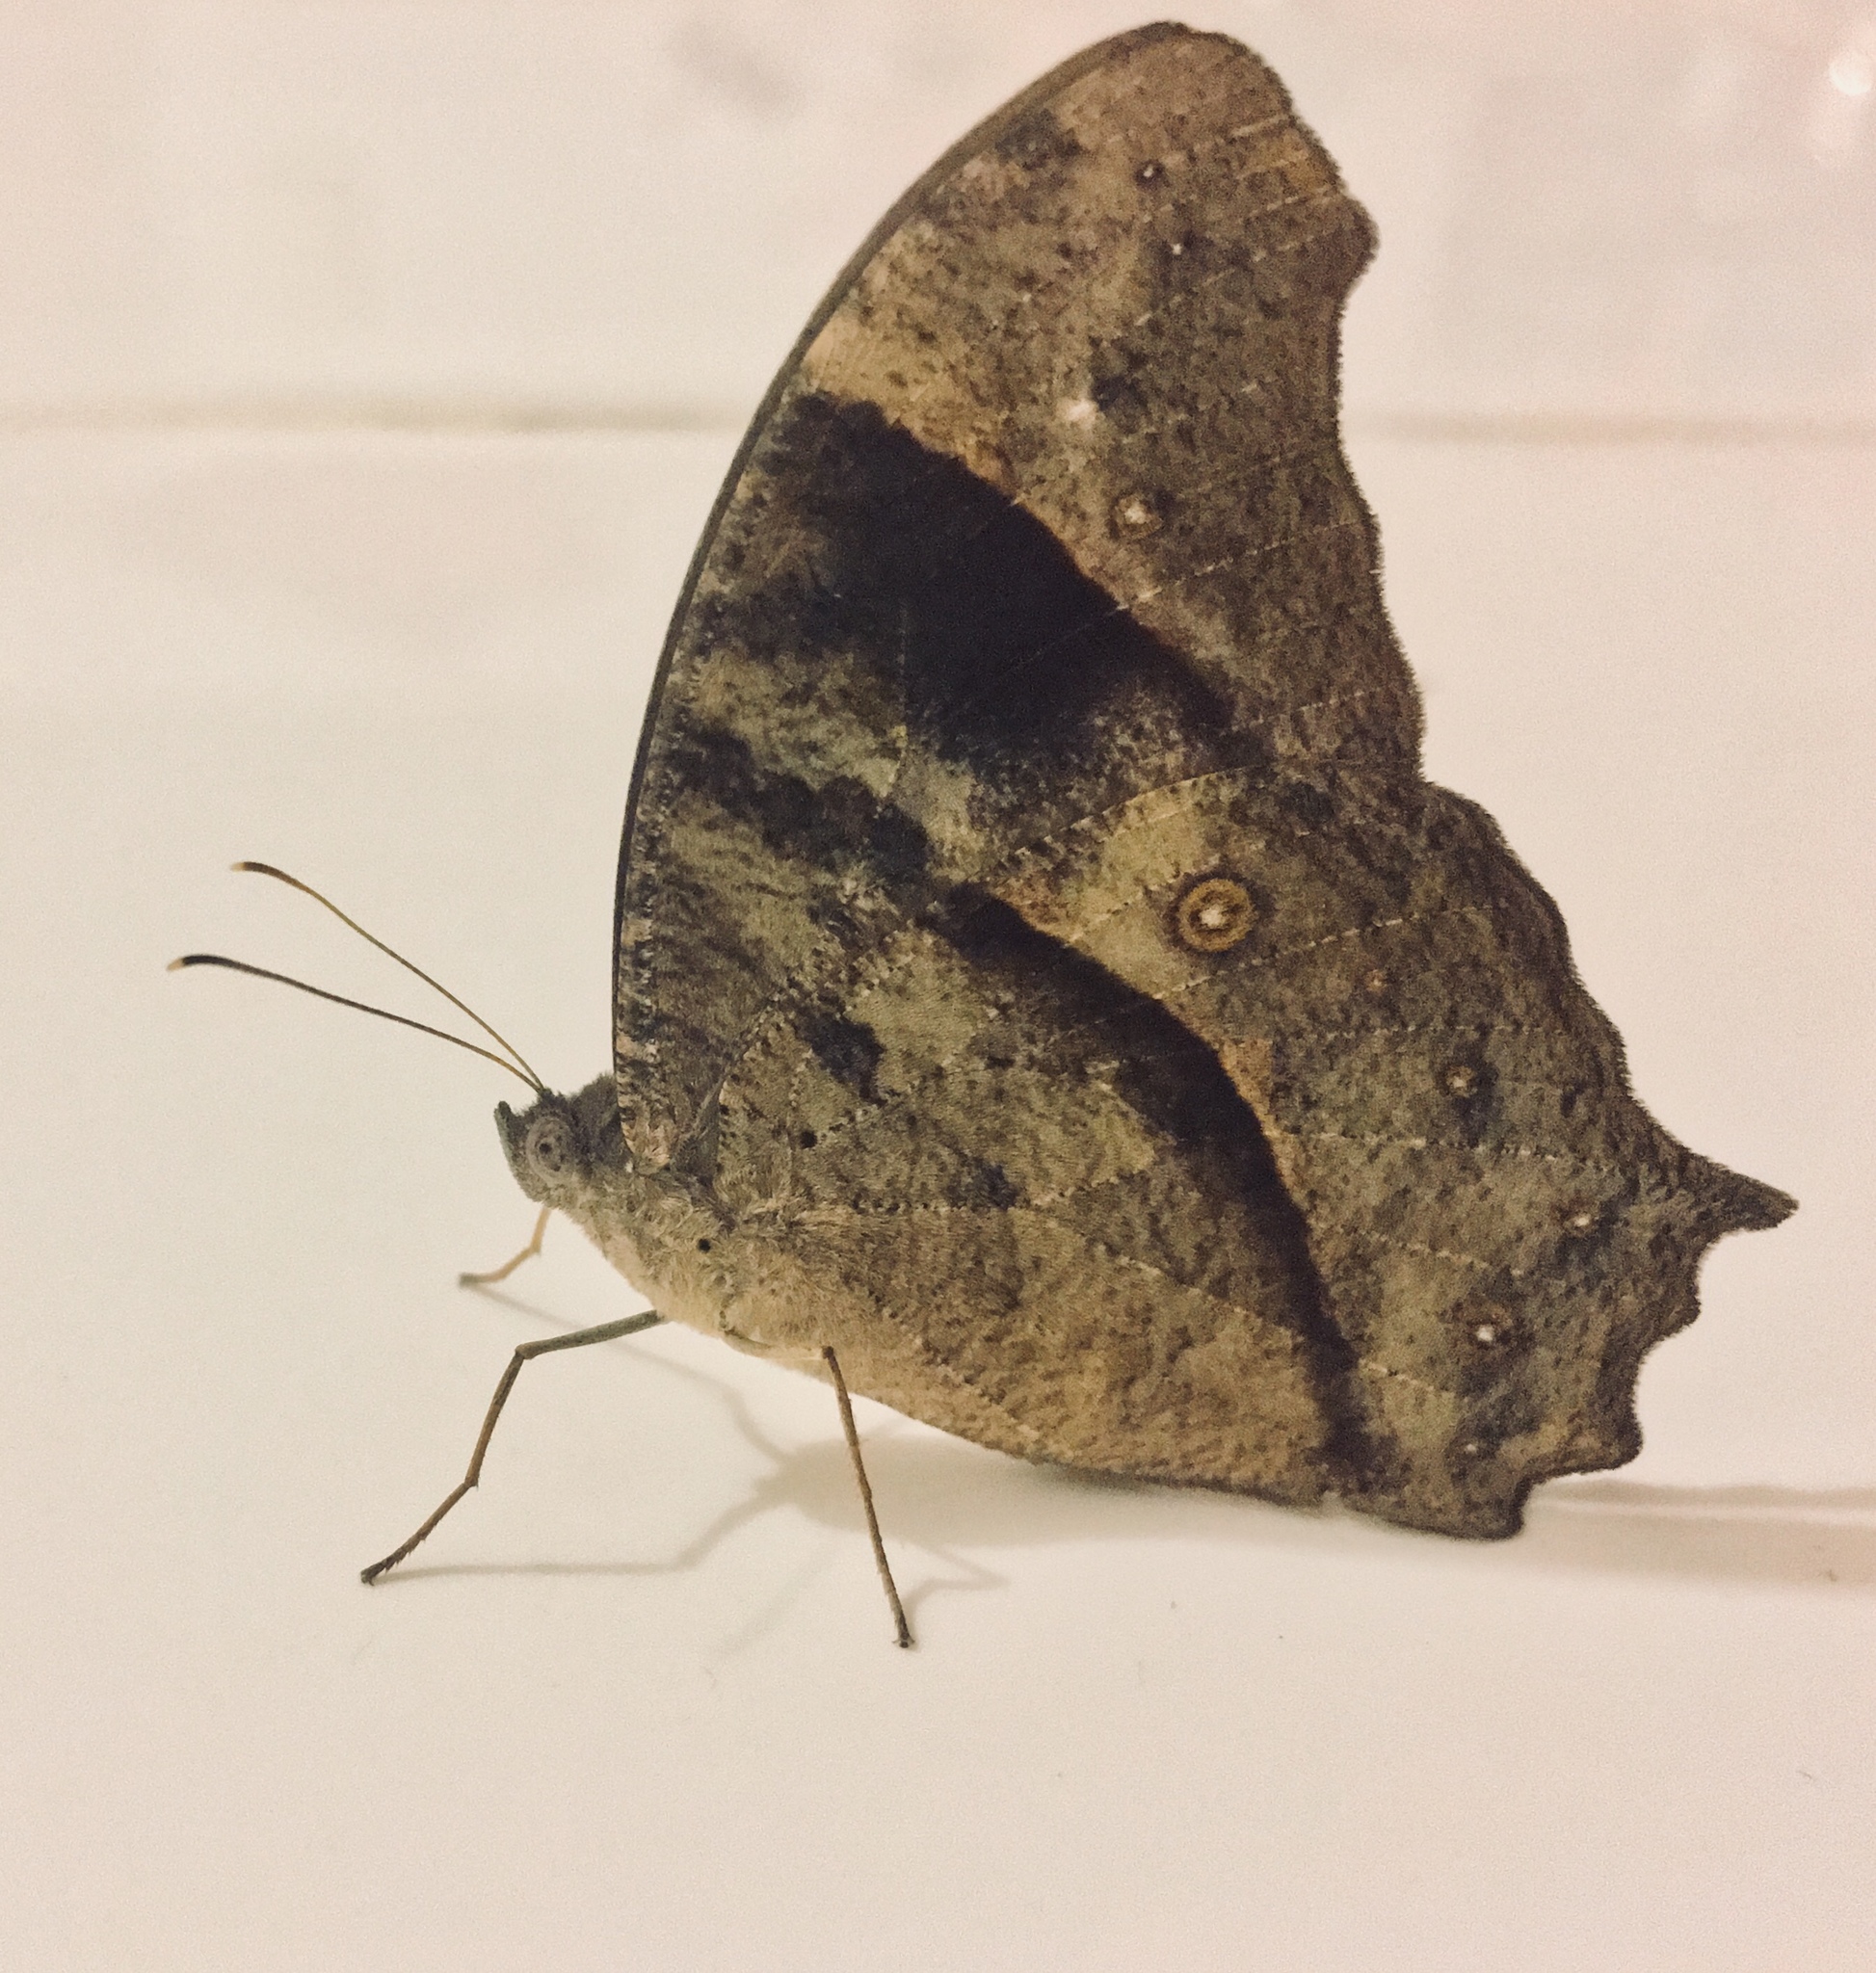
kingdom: Animalia
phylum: Arthropoda
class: Insecta
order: Lepidoptera
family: Nymphalidae
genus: Melanitis
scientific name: Melanitis leda
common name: Twilight brown
